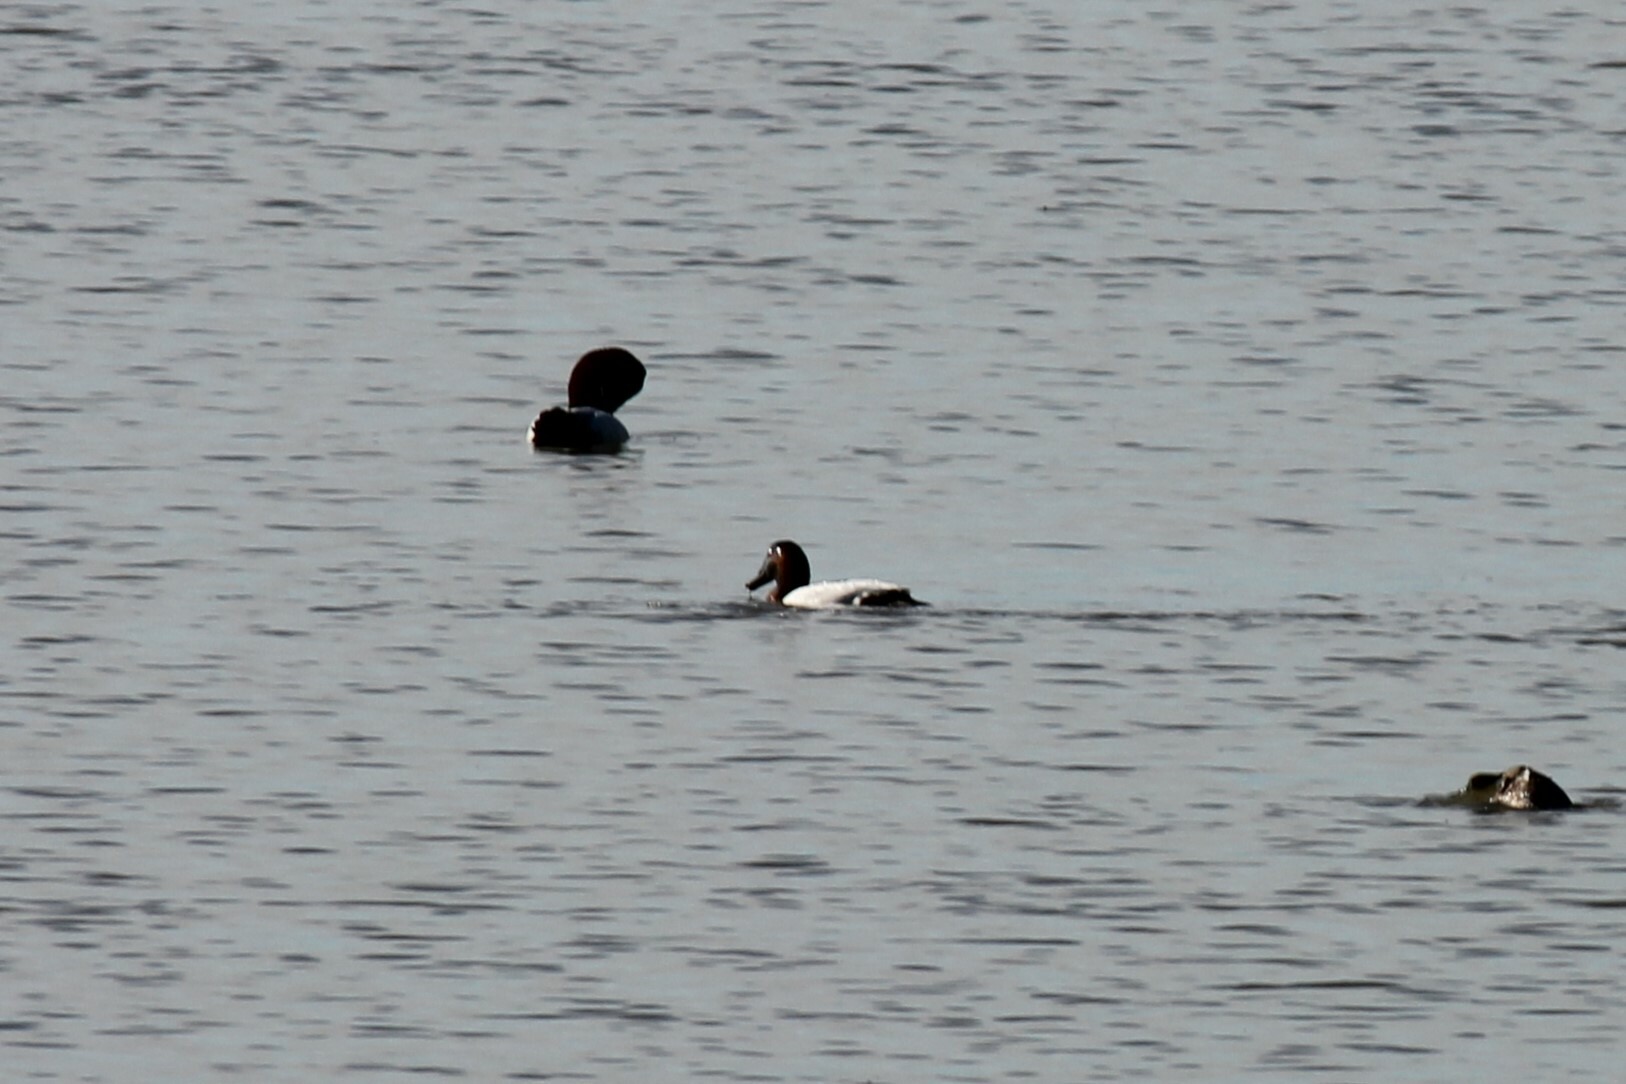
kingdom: Animalia
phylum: Chordata
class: Aves
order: Anseriformes
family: Anatidae
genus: Aythya
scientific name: Aythya valisineria
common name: Canvasback
